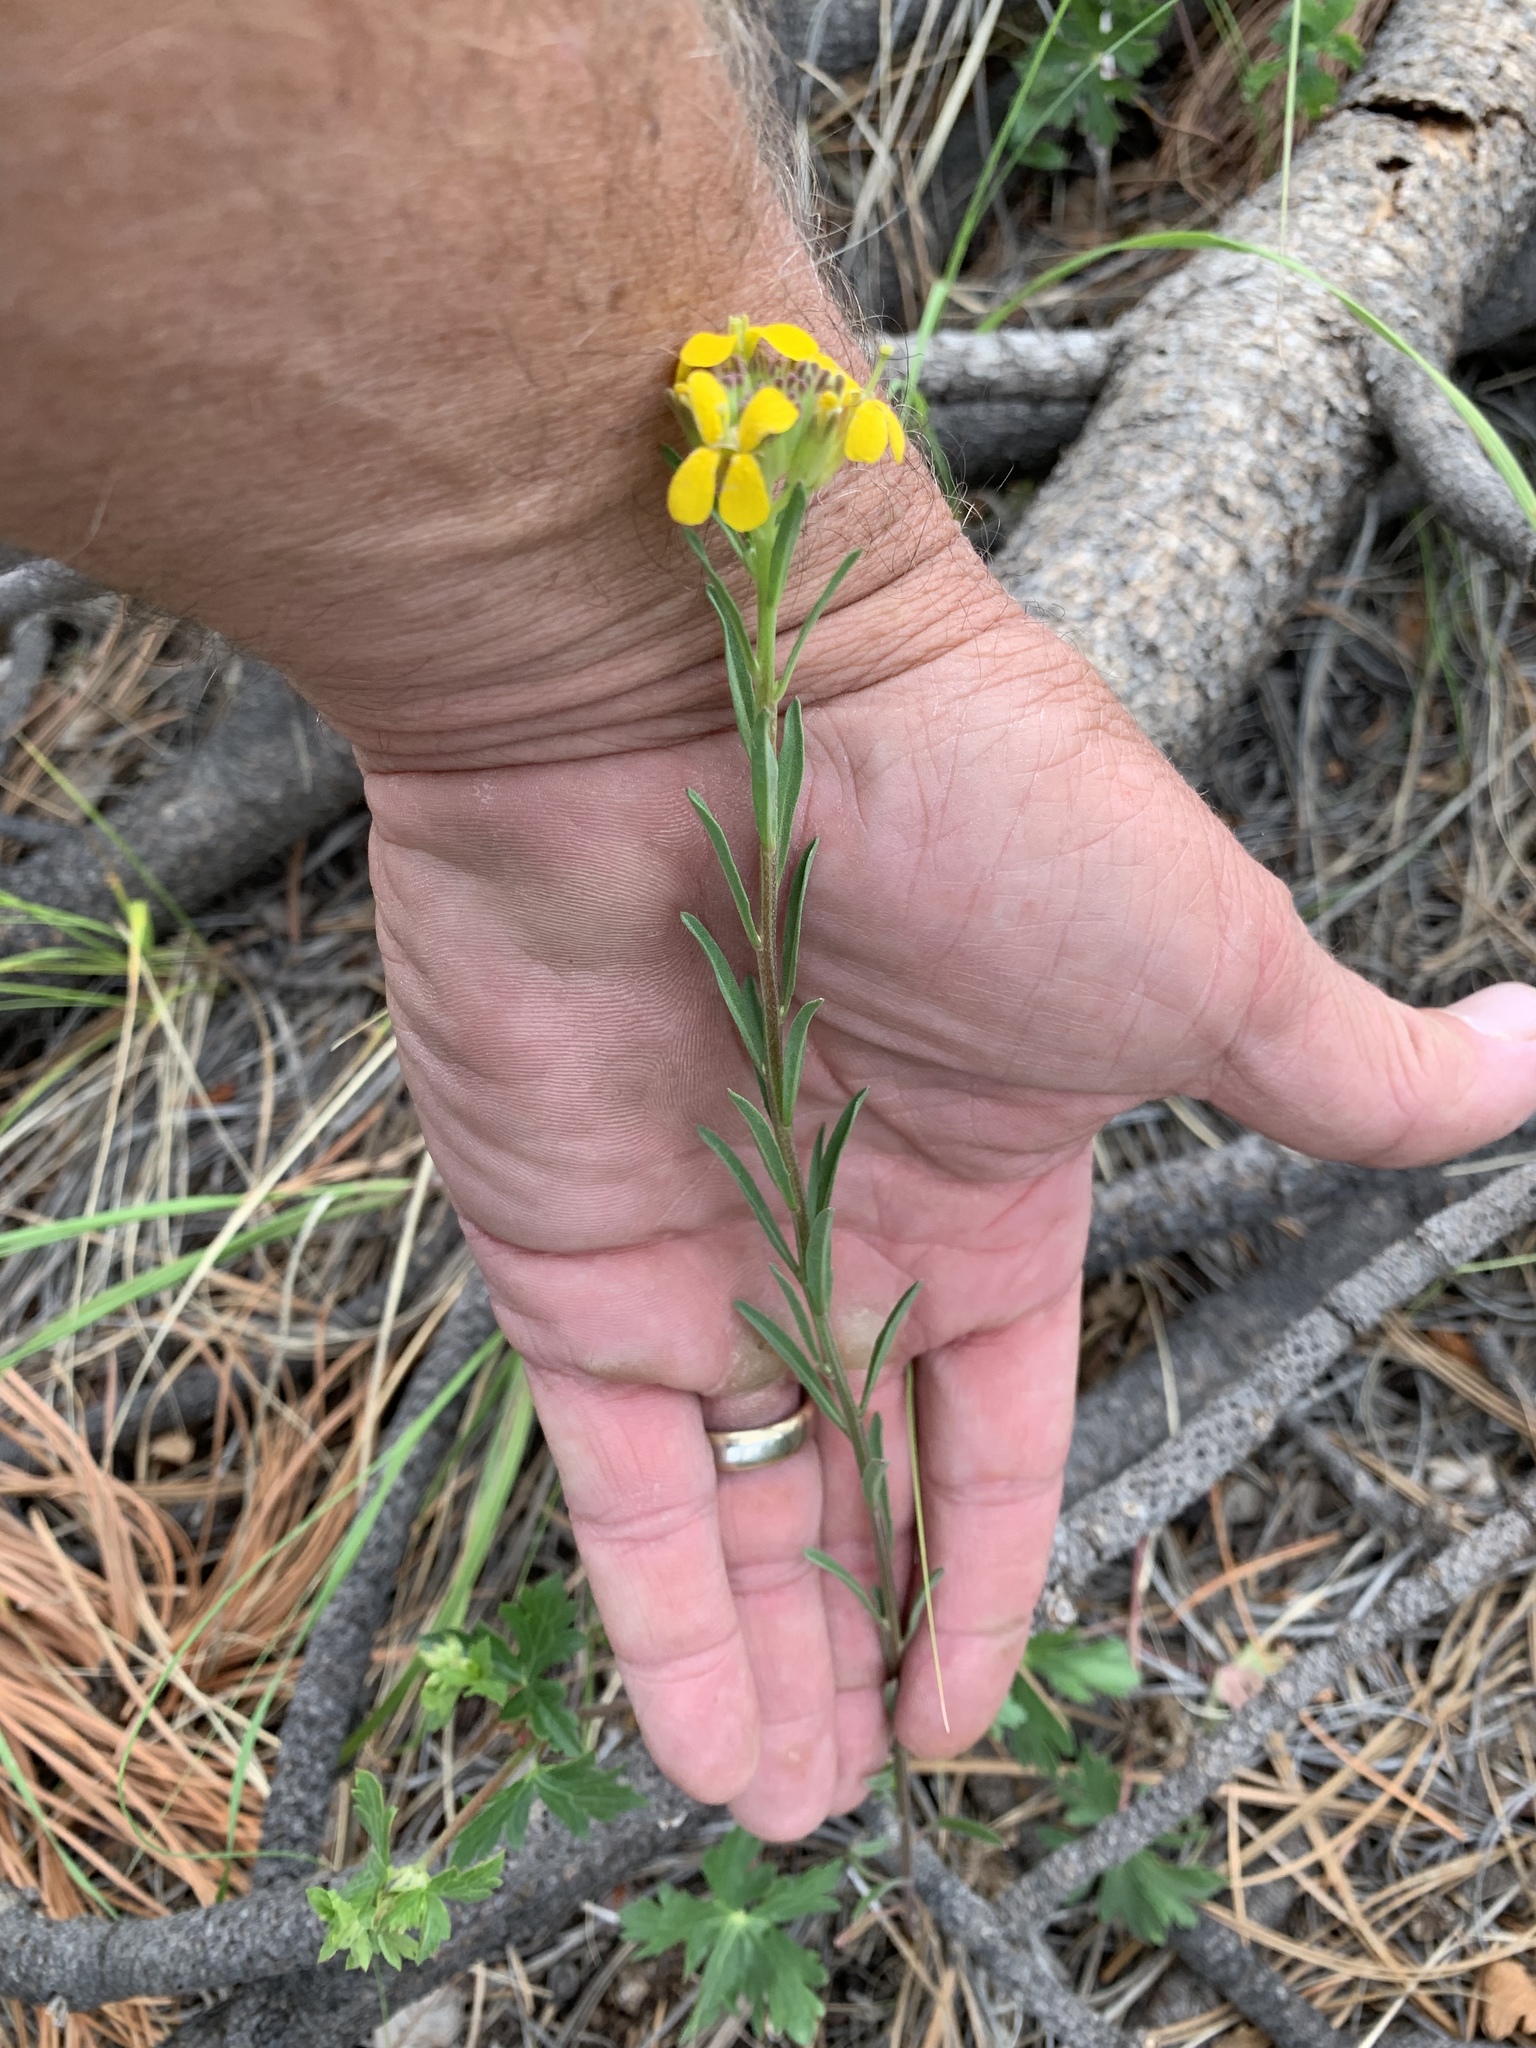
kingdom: Plantae
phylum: Tracheophyta
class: Magnoliopsida
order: Brassicales
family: Brassicaceae
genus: Erysimum
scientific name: Erysimum capitatum
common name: Western wallflower
